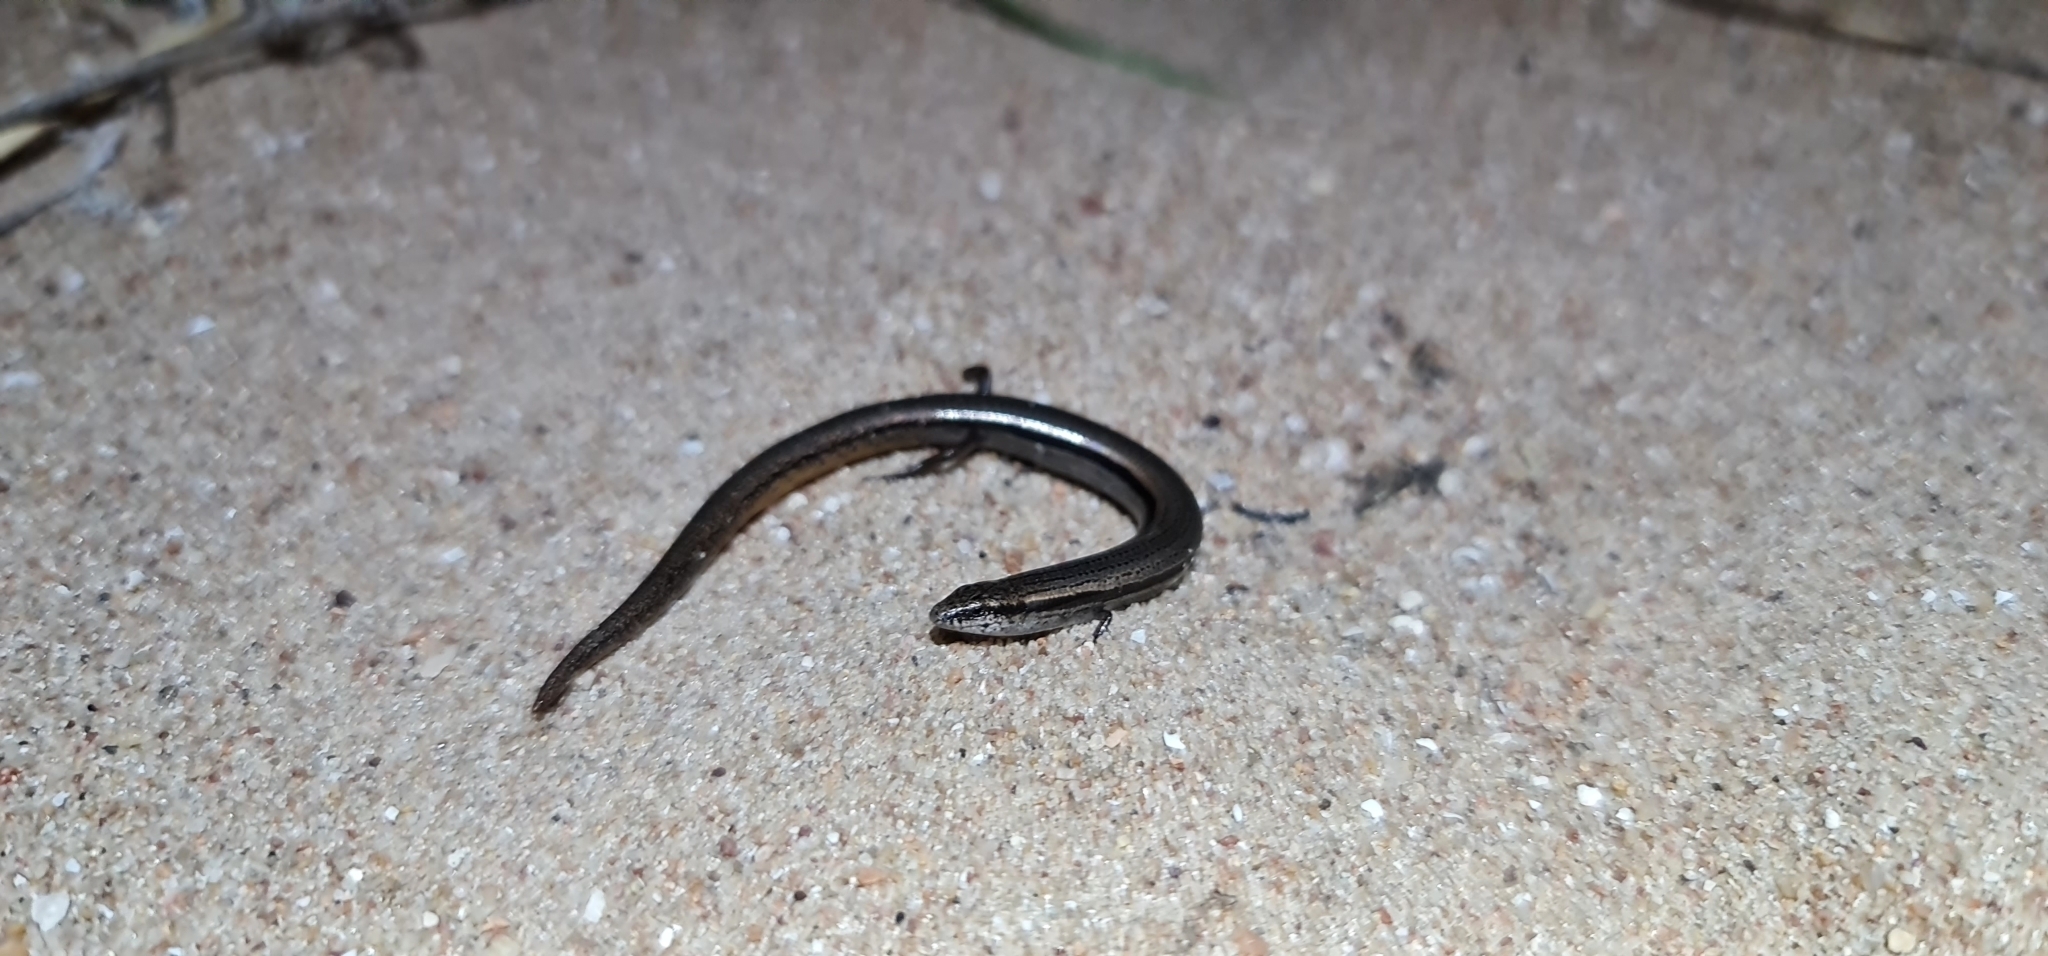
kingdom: Animalia
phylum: Chordata
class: Squamata
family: Scincidae
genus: Lerista
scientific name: Lerista dorsalis
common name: Southern slider
